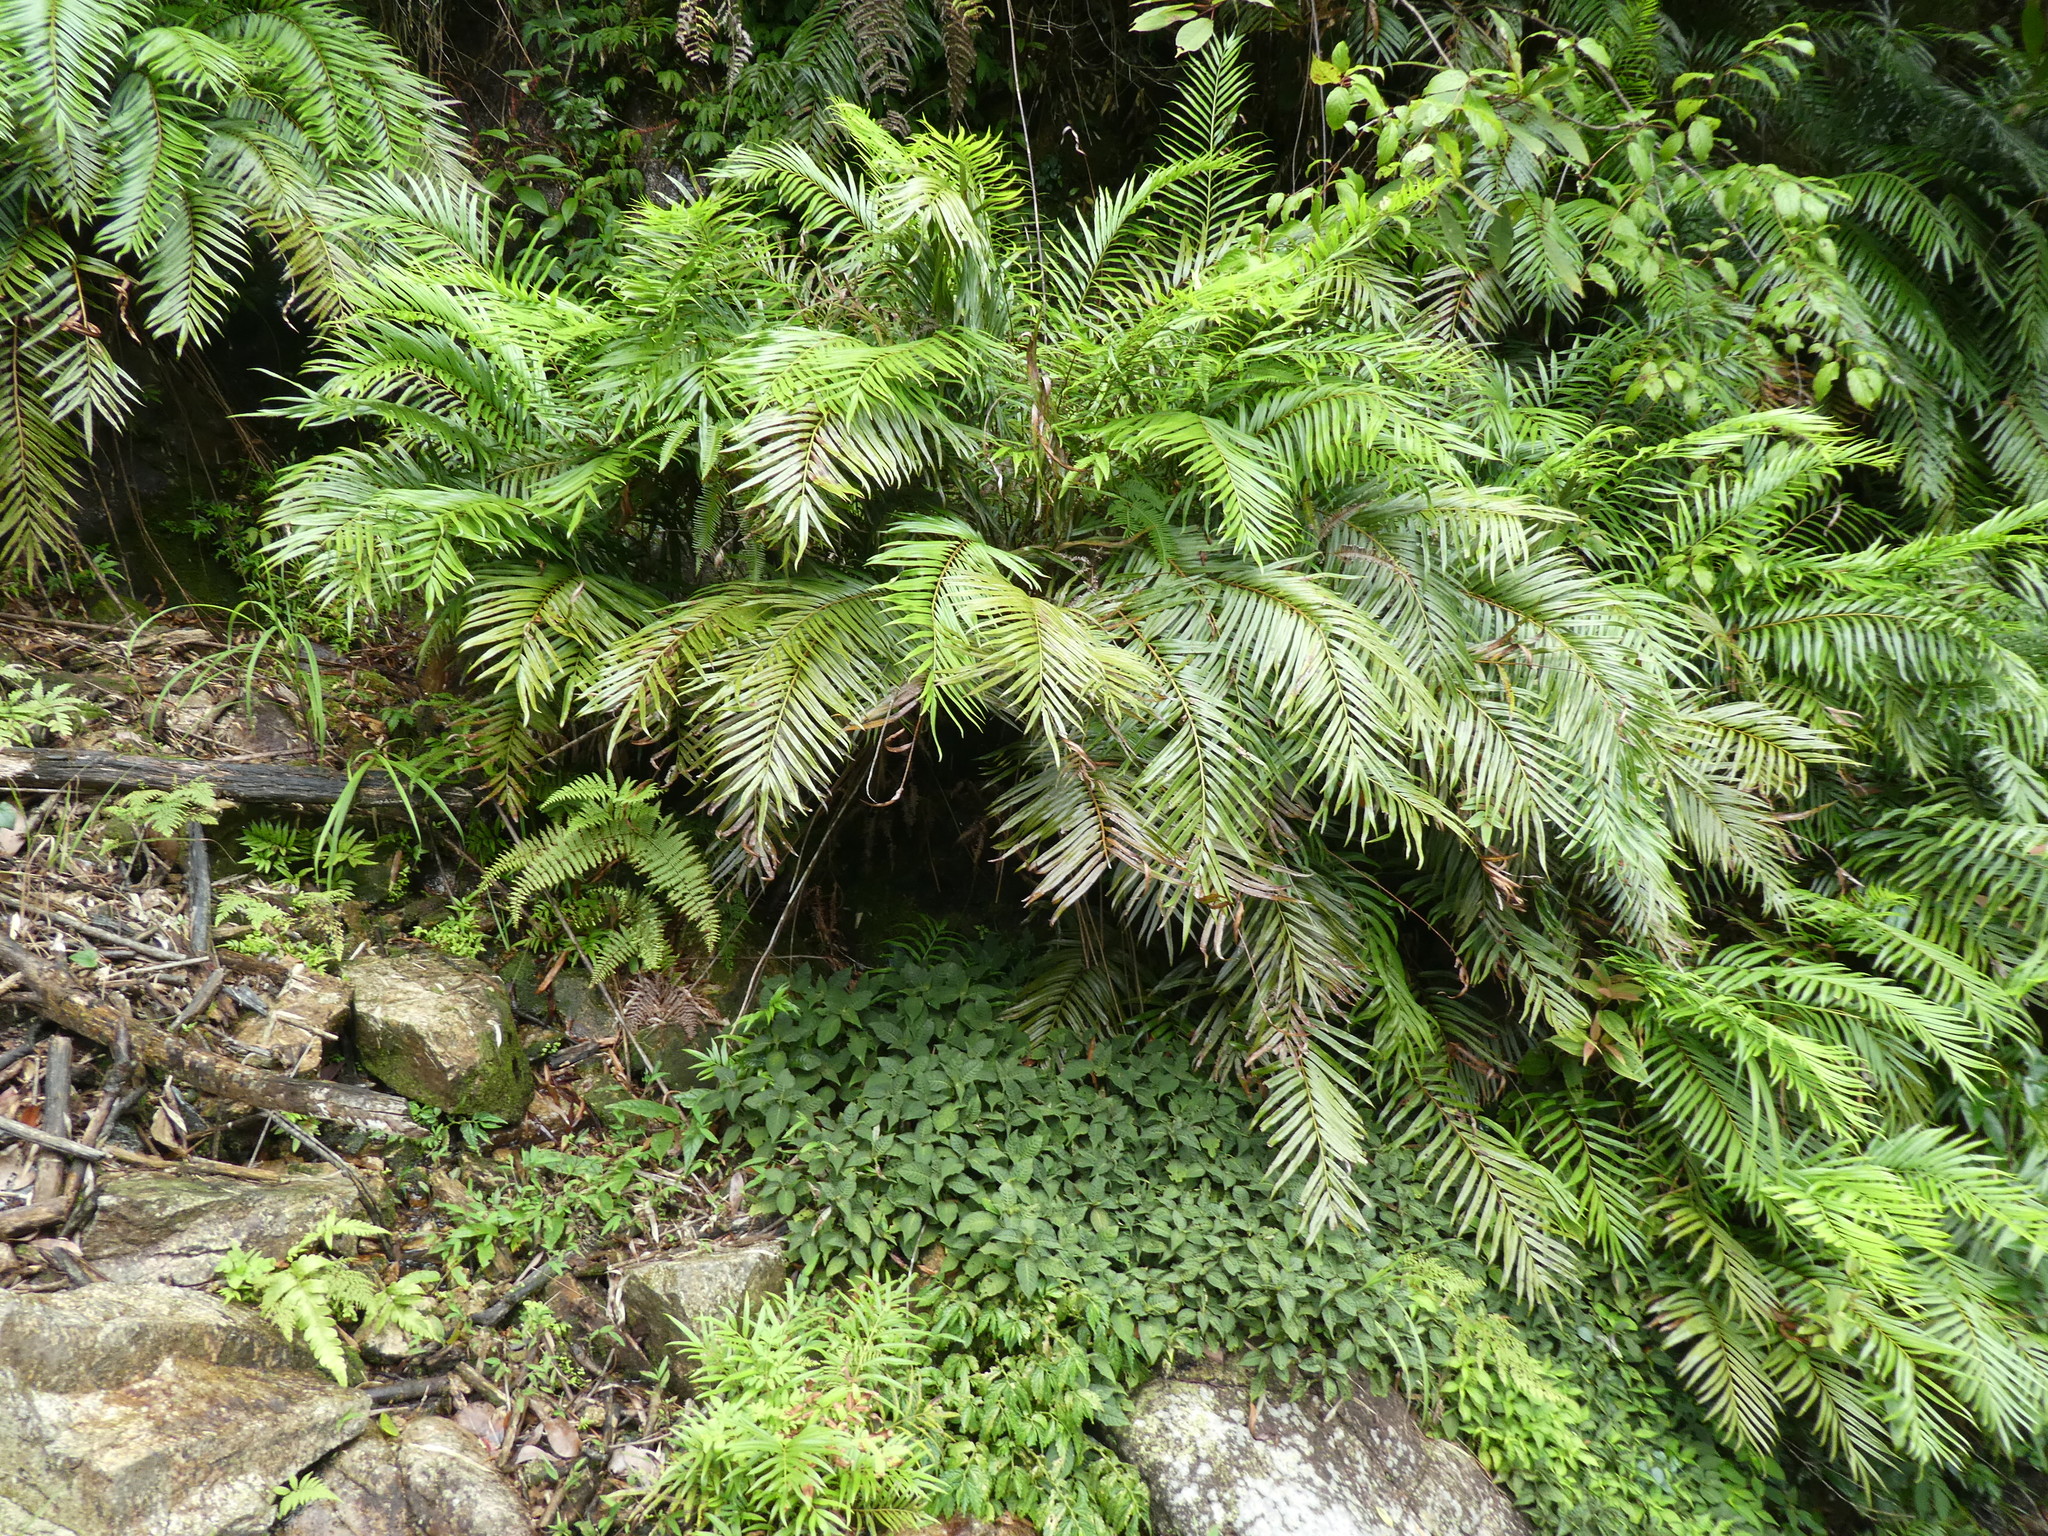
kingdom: Plantae
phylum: Tracheophyta
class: Polypodiopsida
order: Osmundales
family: Osmundaceae
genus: Plenasium
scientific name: Plenasium vachellii
